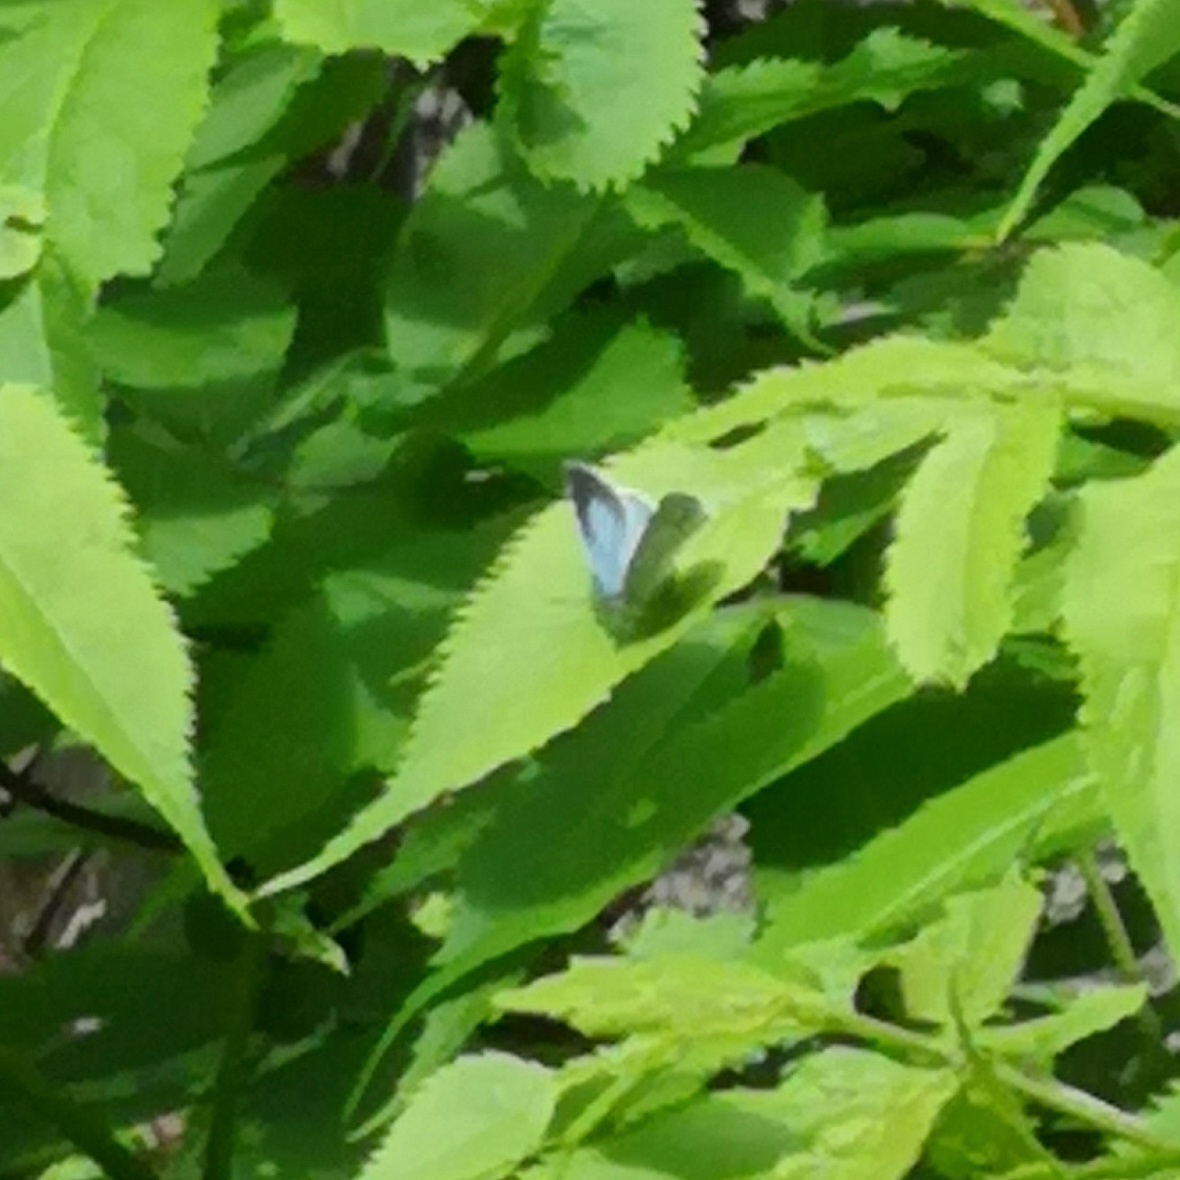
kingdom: Animalia
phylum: Arthropoda
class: Insecta
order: Lepidoptera
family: Lycaenidae
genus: Celastrina
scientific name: Celastrina argiolus
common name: Holly blue
